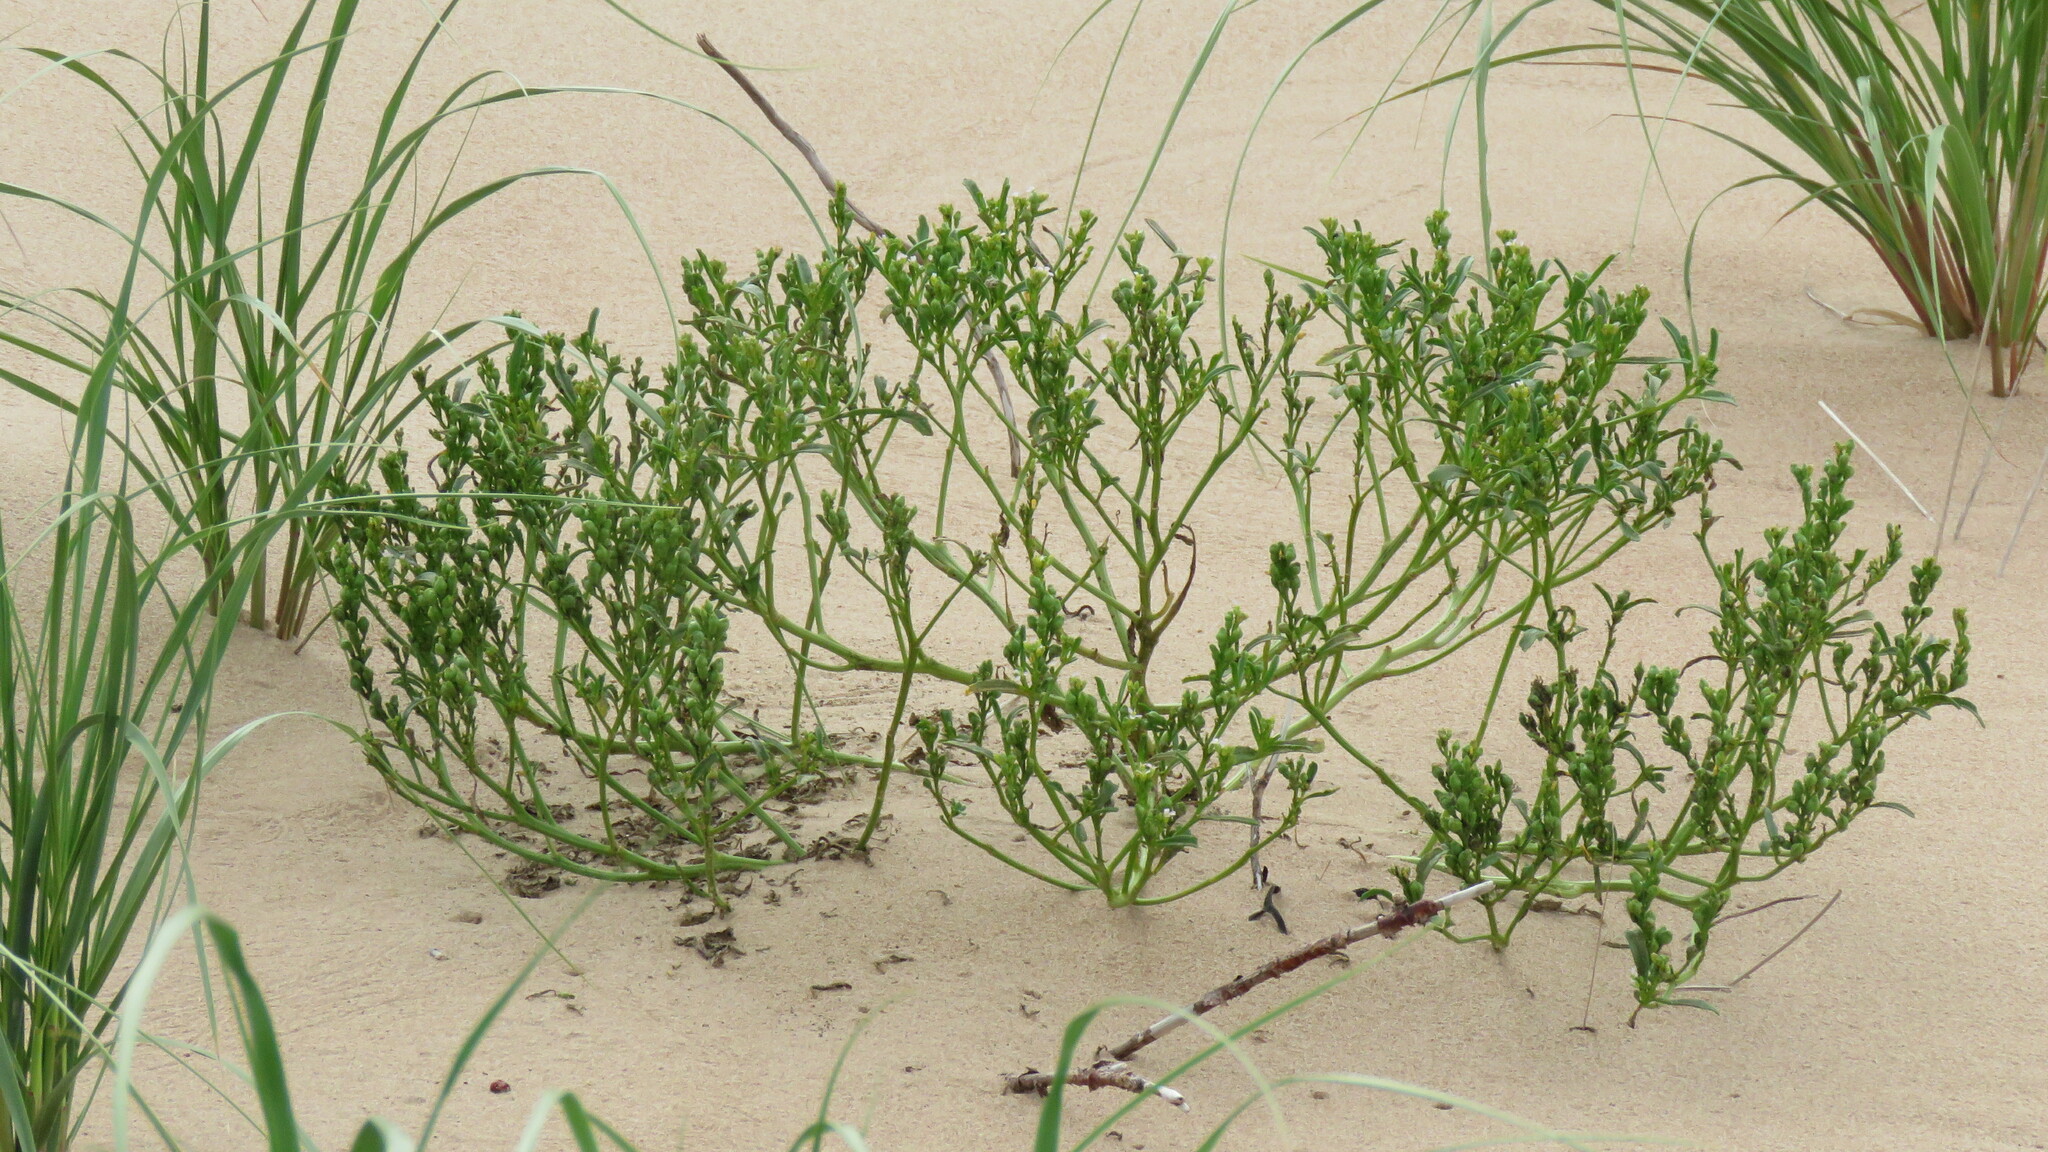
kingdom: Plantae
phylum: Tracheophyta
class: Magnoliopsida
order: Brassicales
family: Brassicaceae
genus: Cakile
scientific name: Cakile edentula
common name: American sea rocket
